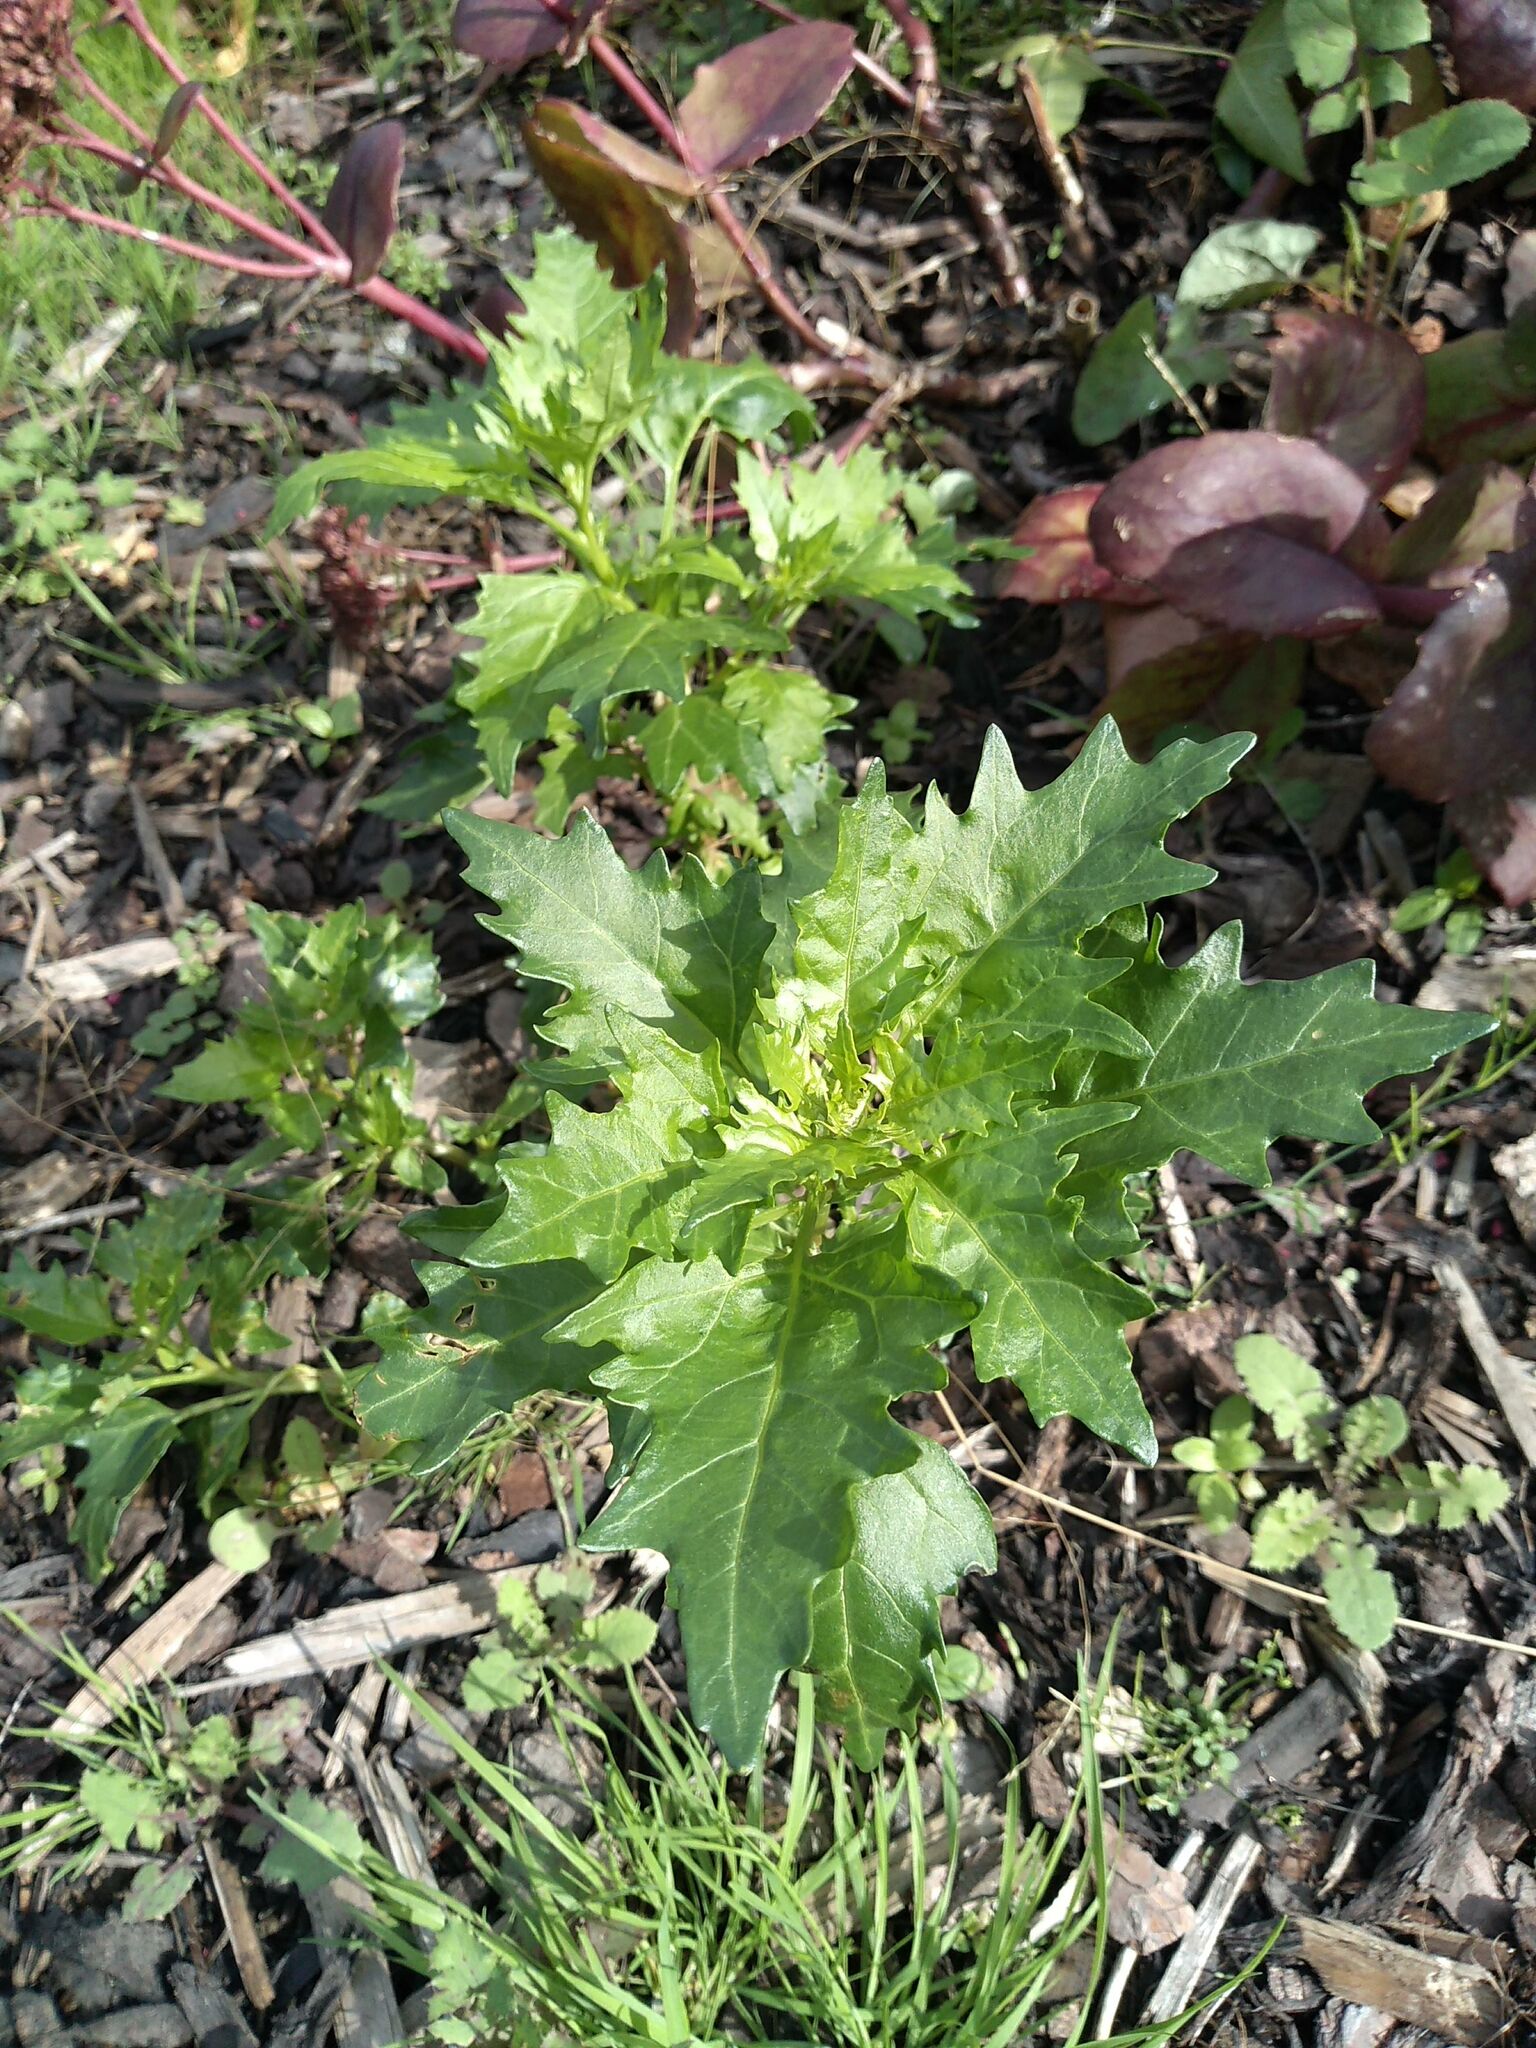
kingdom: Plantae
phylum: Tracheophyta
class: Magnoliopsida
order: Caryophyllales
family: Amaranthaceae
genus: Oxybasis
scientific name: Oxybasis rubra
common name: Red goosefoot
